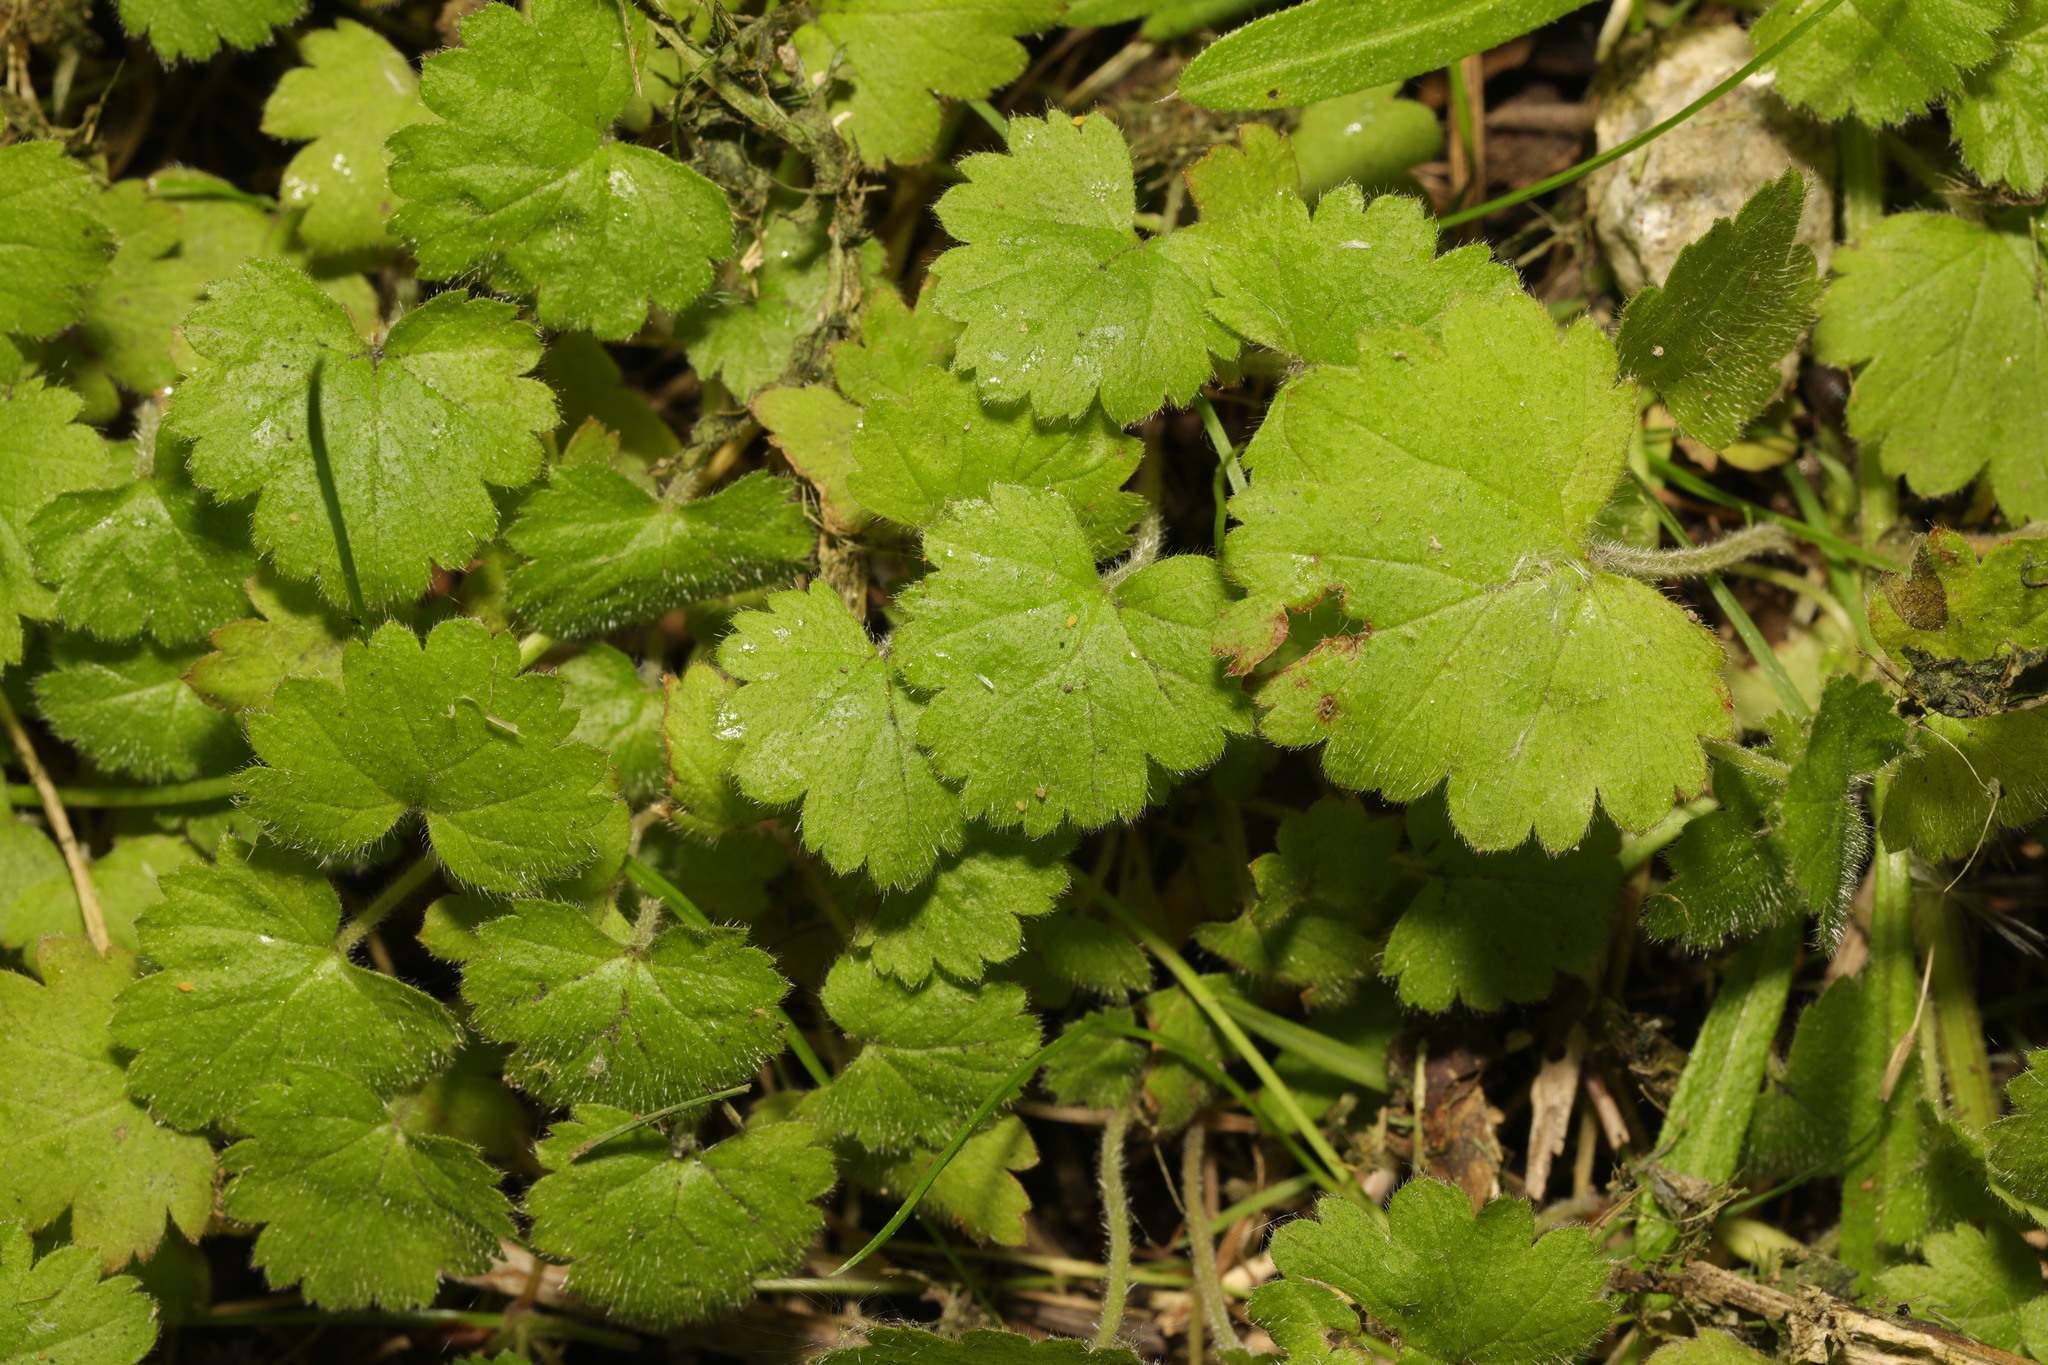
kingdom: Plantae
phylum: Tracheophyta
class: Magnoliopsida
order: Lamiales
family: Lamiaceae
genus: Glechoma
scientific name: Glechoma hederacea
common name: Ground ivy
